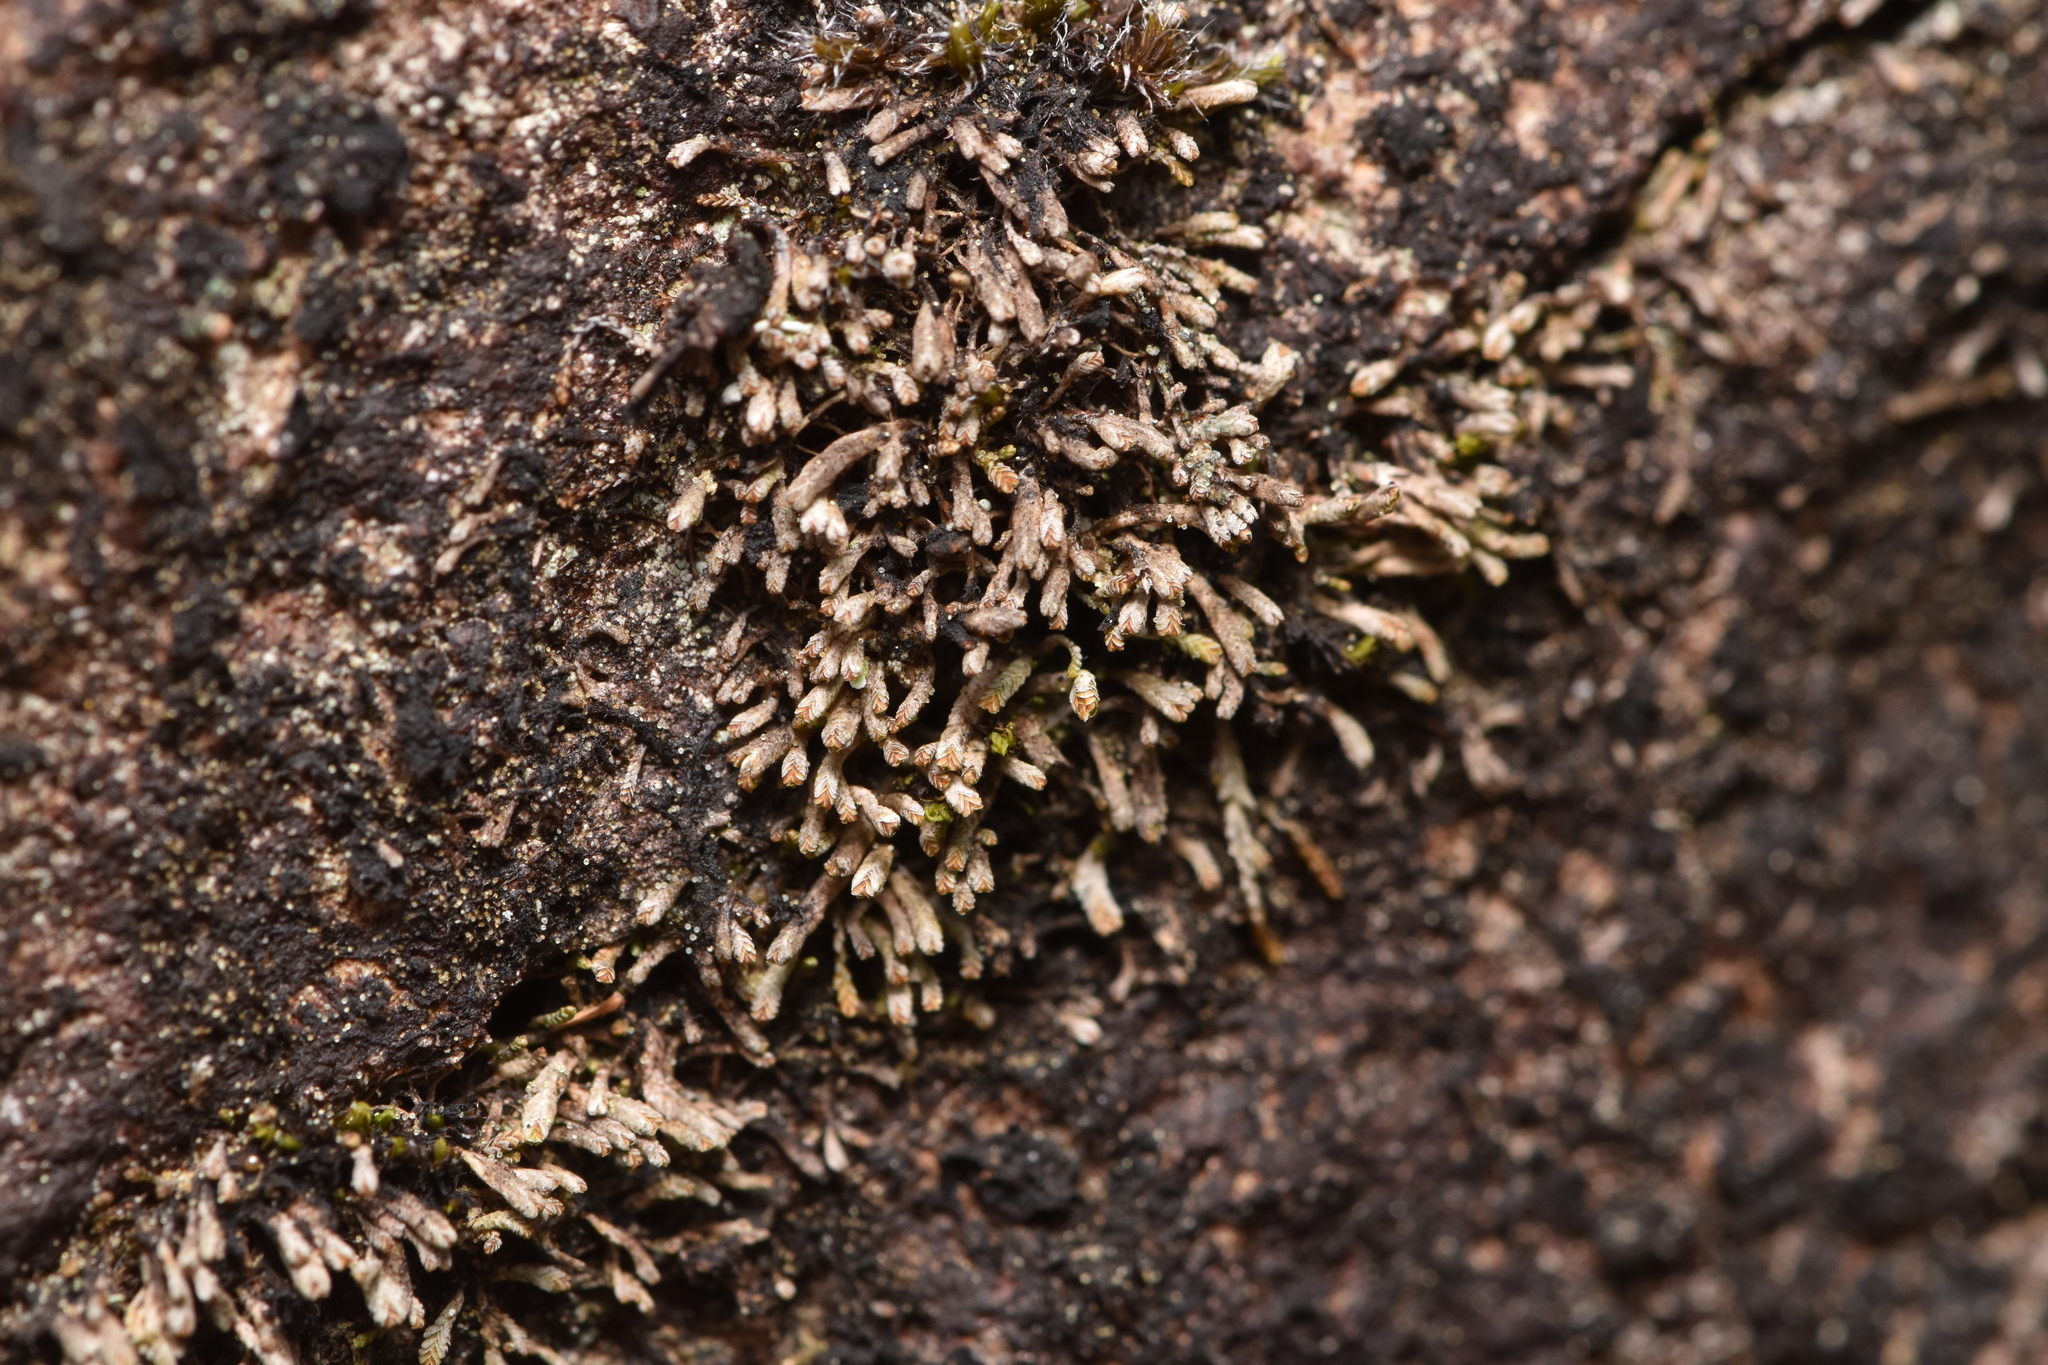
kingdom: Plantae
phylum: Marchantiophyta
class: Jungermanniopsida
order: Jungermanniales
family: Gymnomitriaceae
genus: Gymnomitrion
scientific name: Gymnomitrion obtusum
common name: White frostwort
